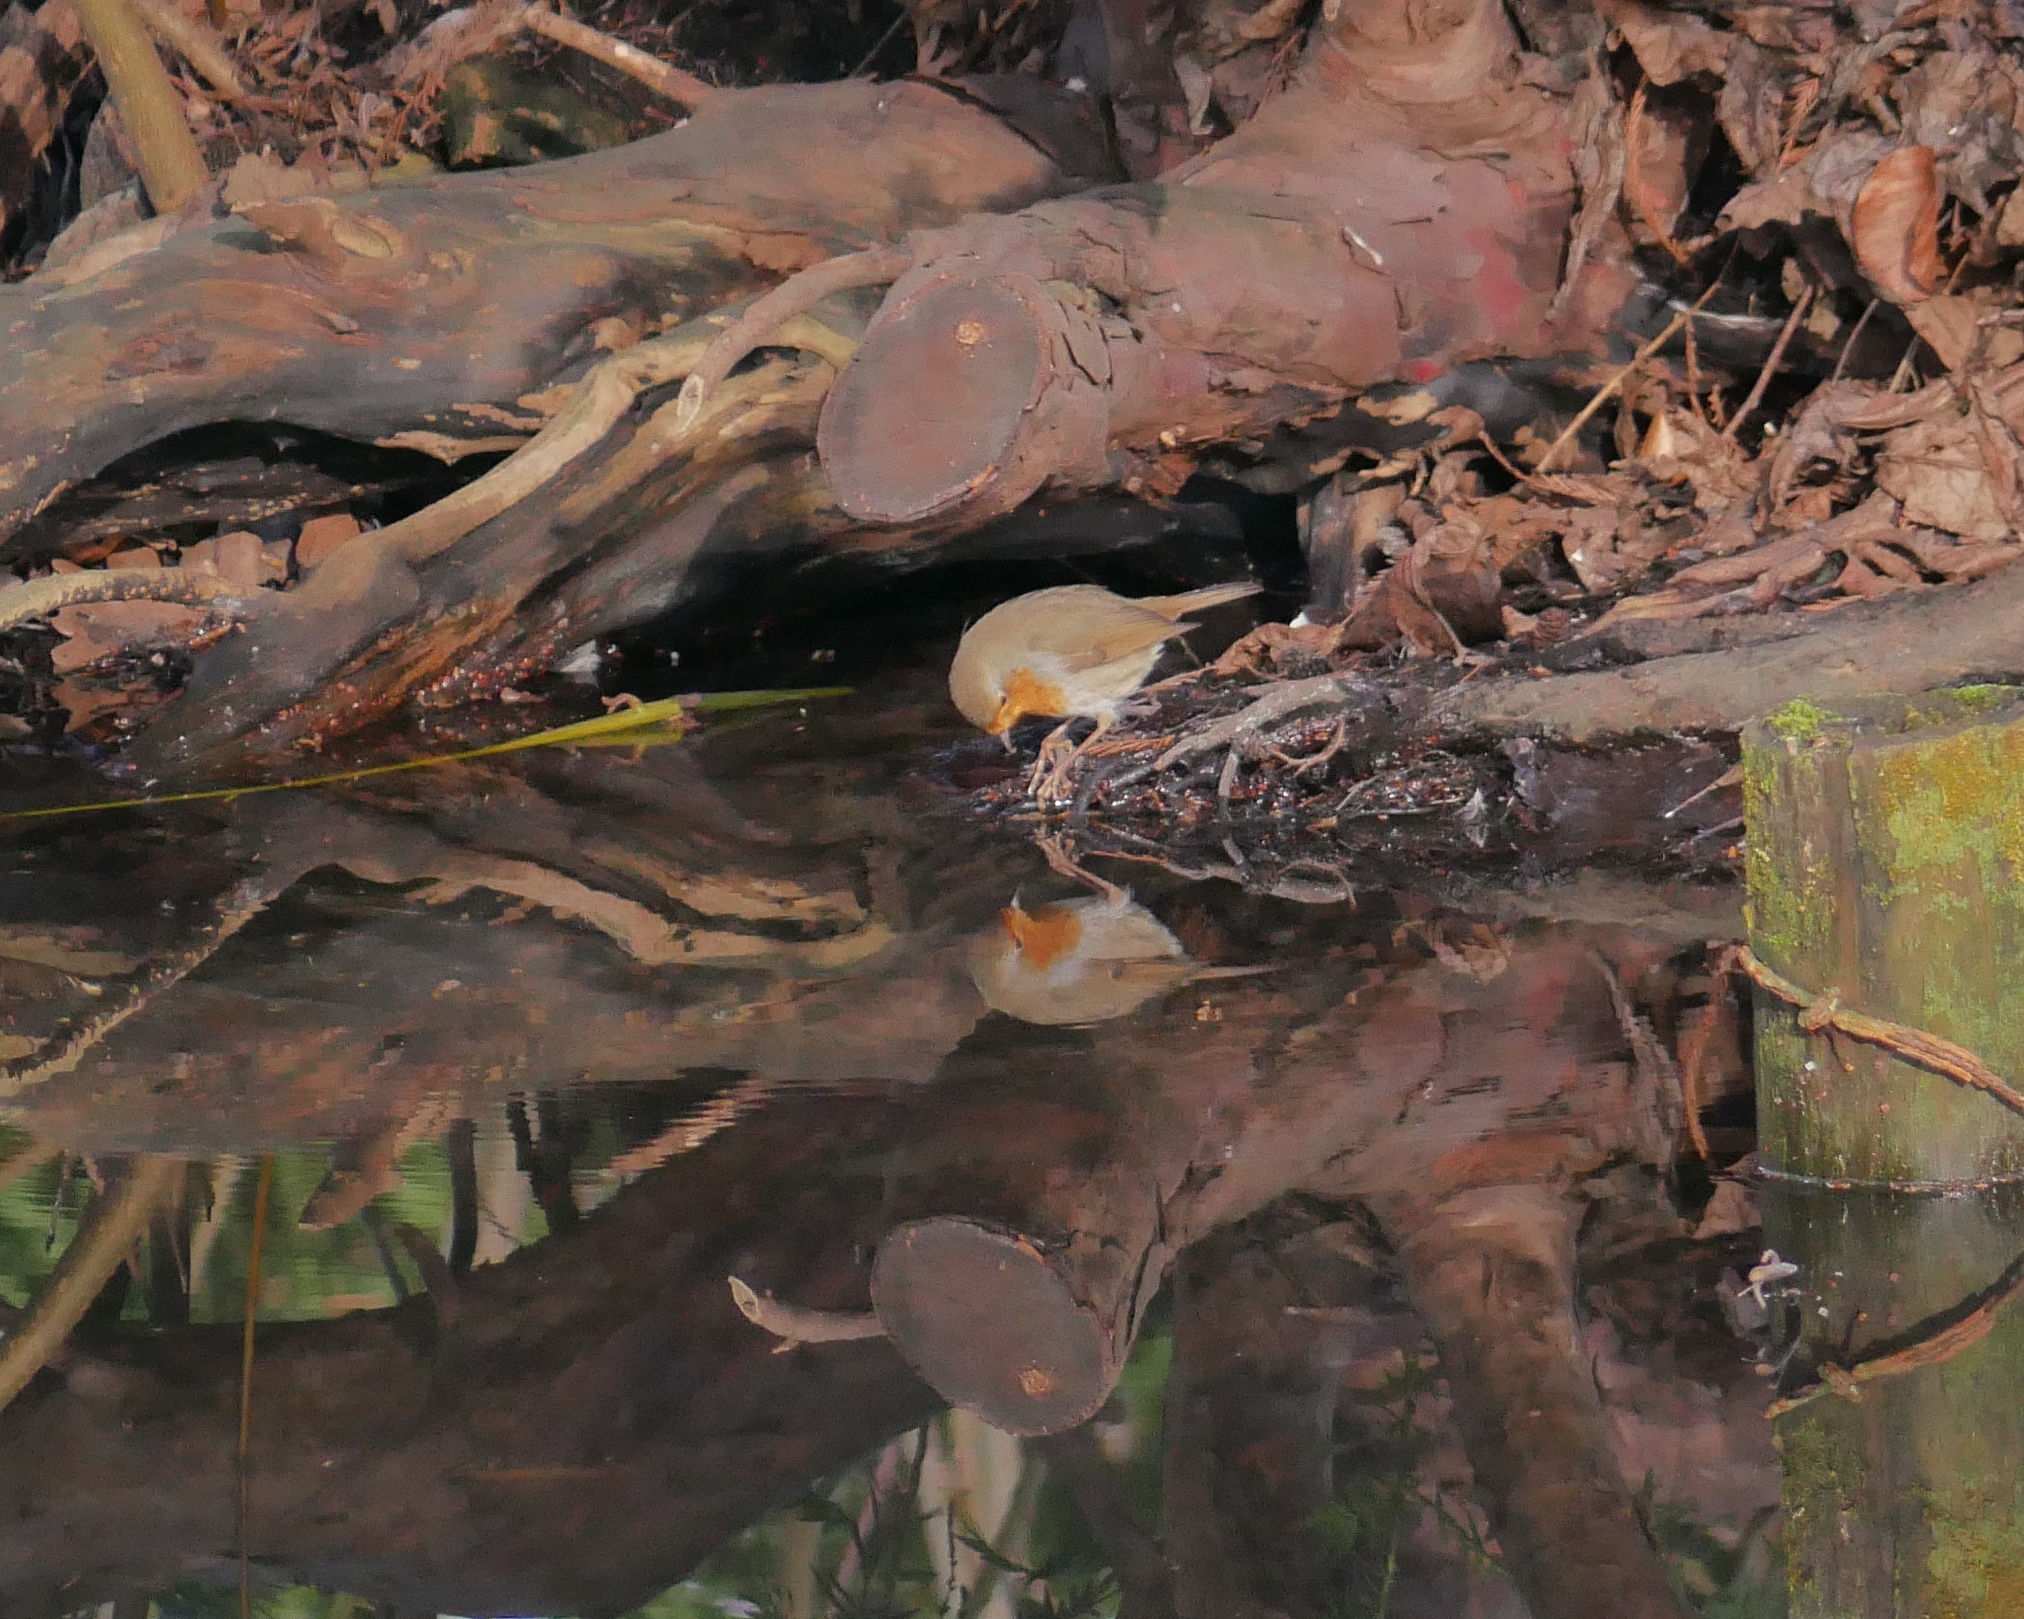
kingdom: Animalia
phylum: Chordata
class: Aves
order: Passeriformes
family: Muscicapidae
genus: Erithacus
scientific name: Erithacus rubecula
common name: European robin
